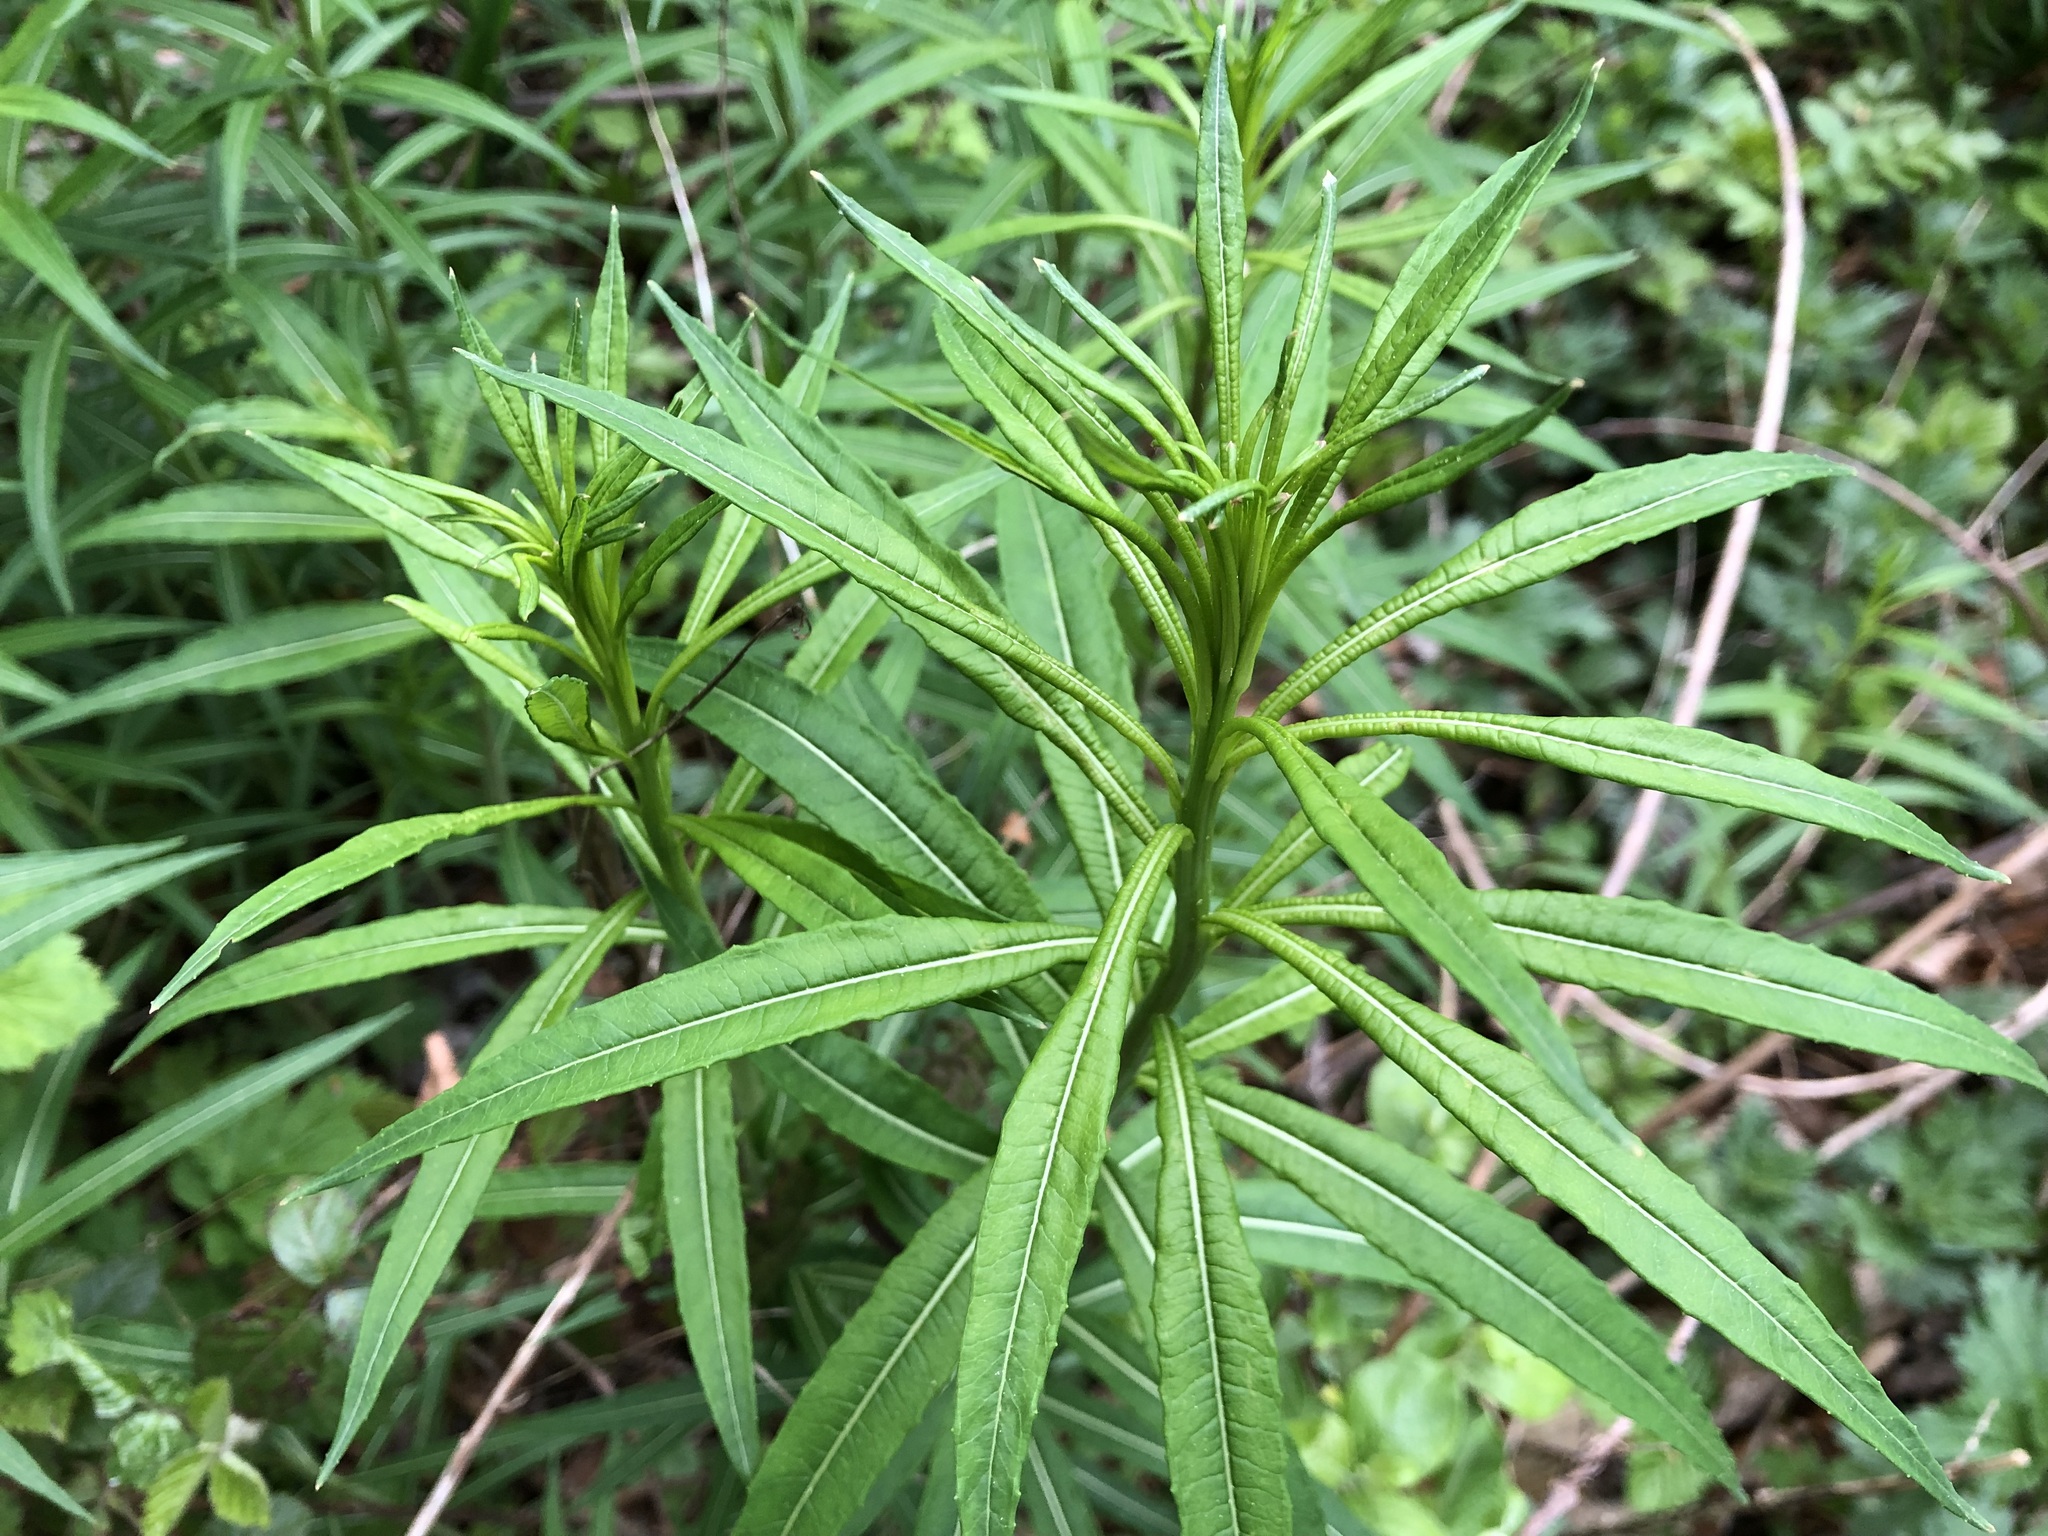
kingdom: Plantae
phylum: Tracheophyta
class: Magnoliopsida
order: Myrtales
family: Onagraceae
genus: Chamaenerion
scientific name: Chamaenerion angustifolium
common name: Fireweed
